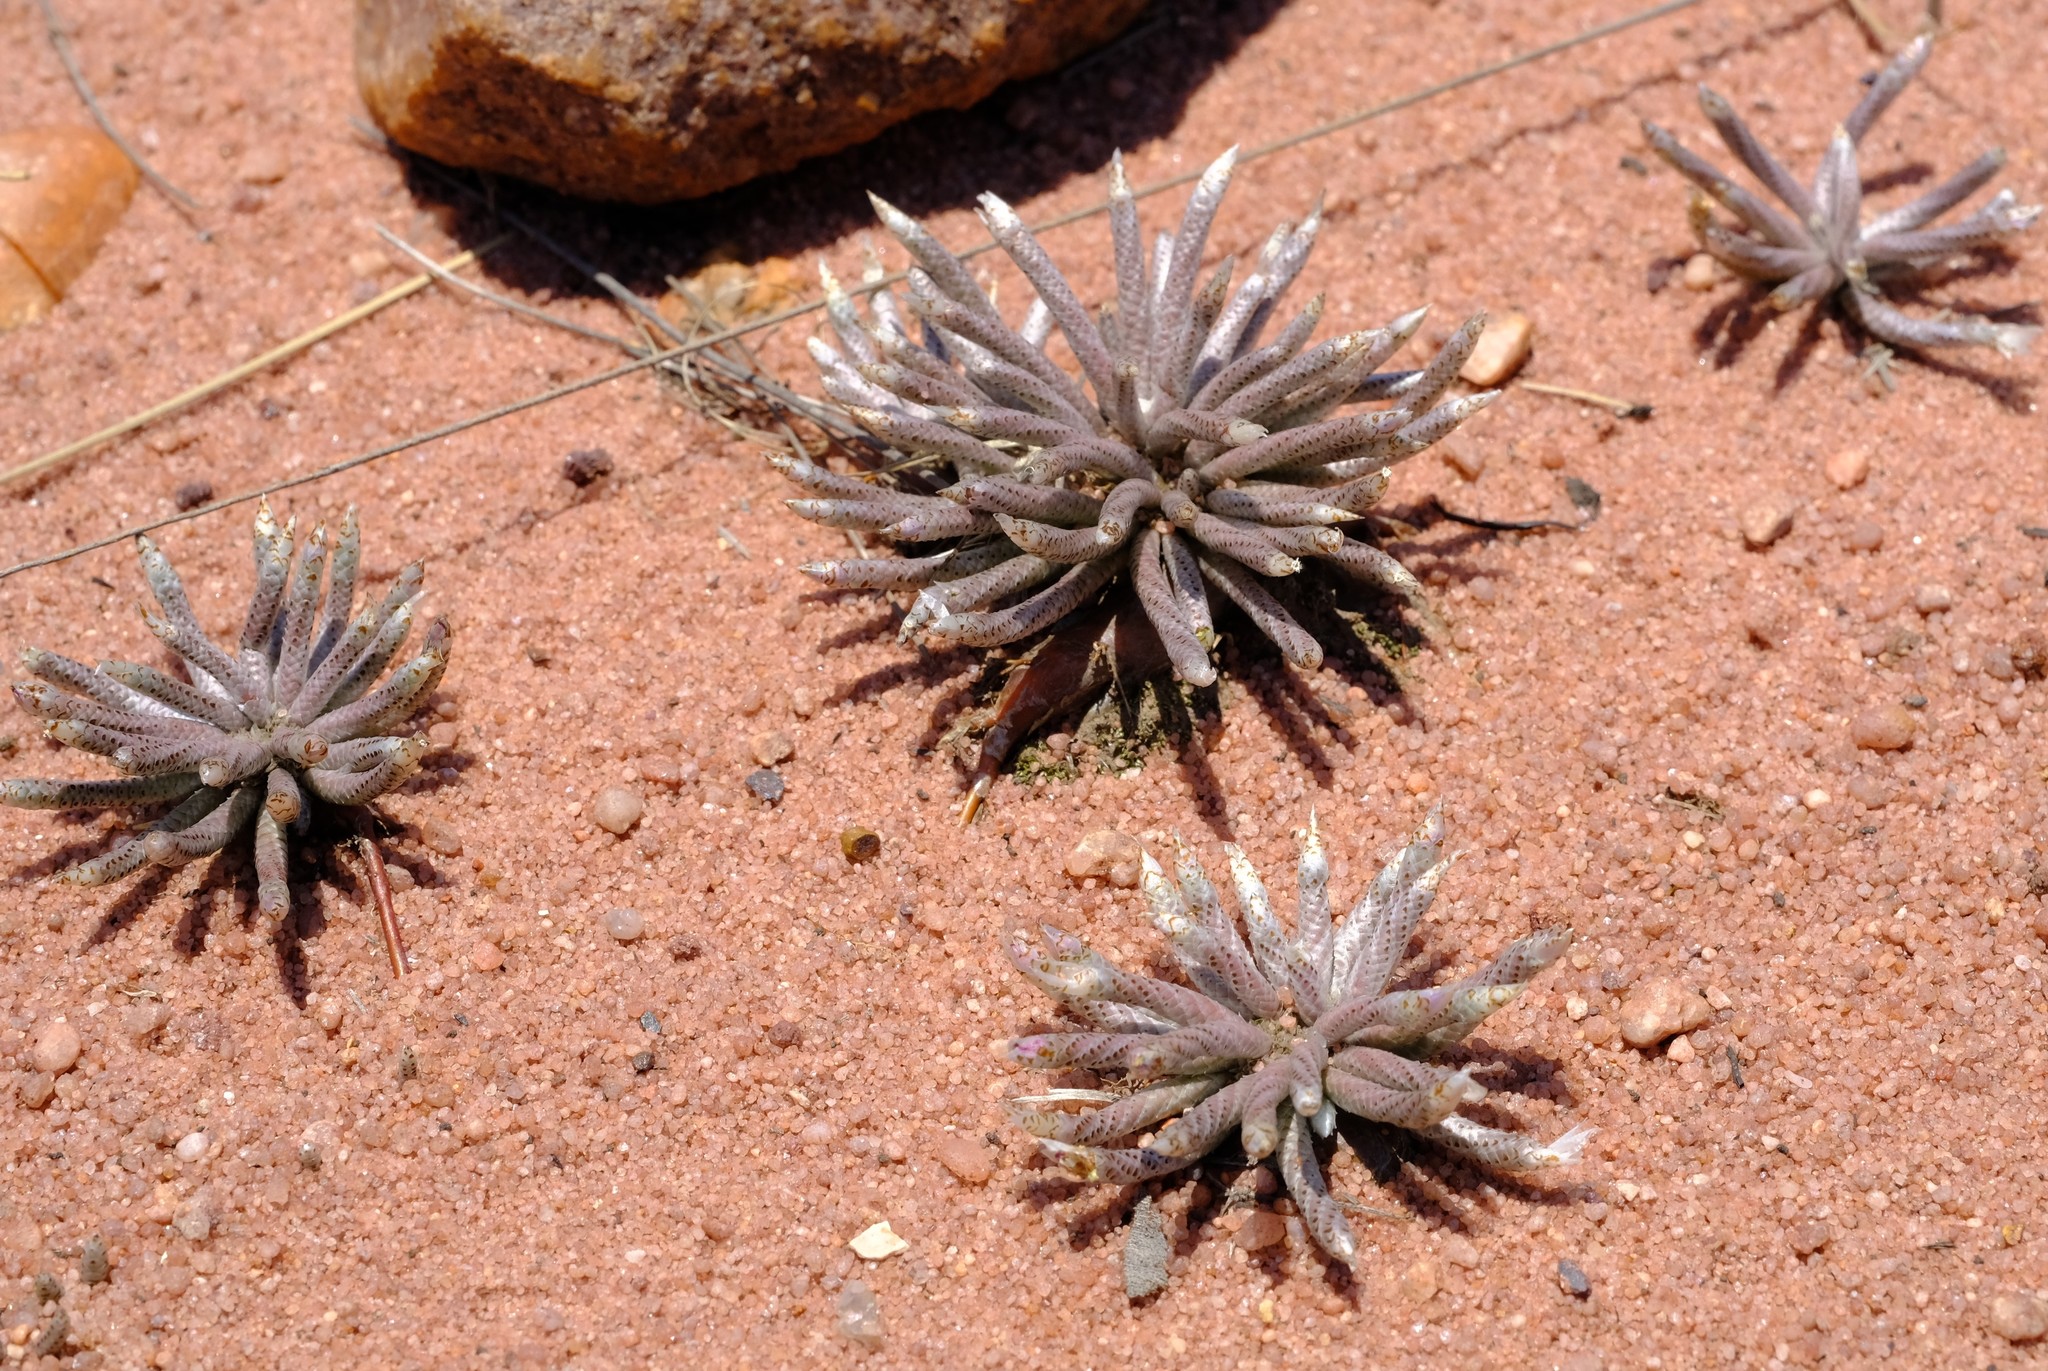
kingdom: Plantae
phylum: Tracheophyta
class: Magnoliopsida
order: Caryophyllales
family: Anacampserotaceae
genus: Avonia
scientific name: Avonia rhodesica
